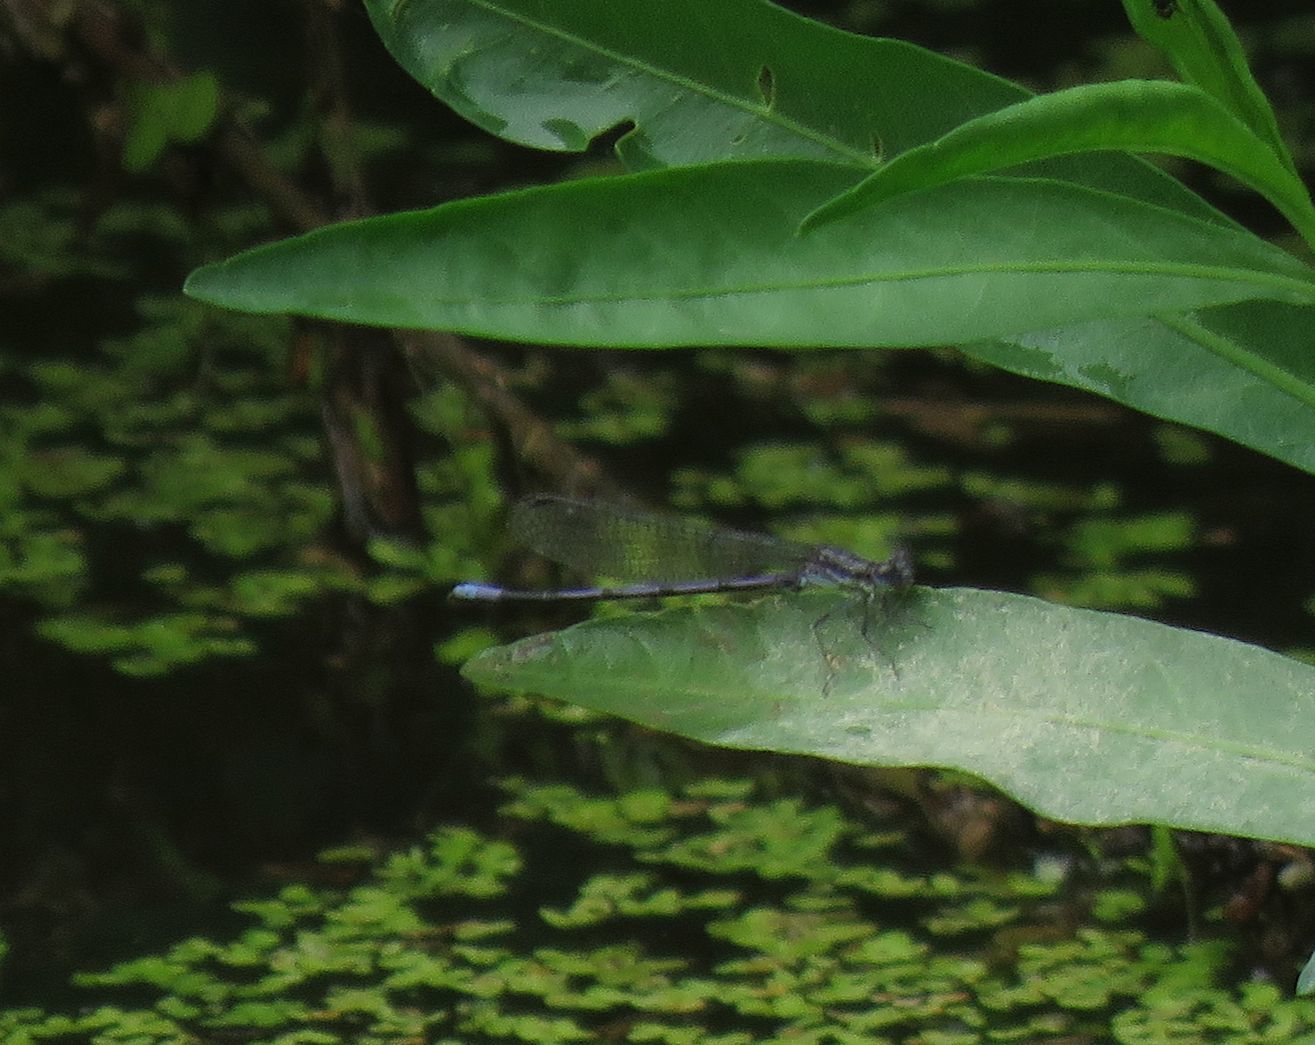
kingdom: Animalia
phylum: Arthropoda
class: Insecta
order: Odonata
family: Coenagrionidae
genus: Argia
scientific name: Argia fumipennis
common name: Variable dancer
